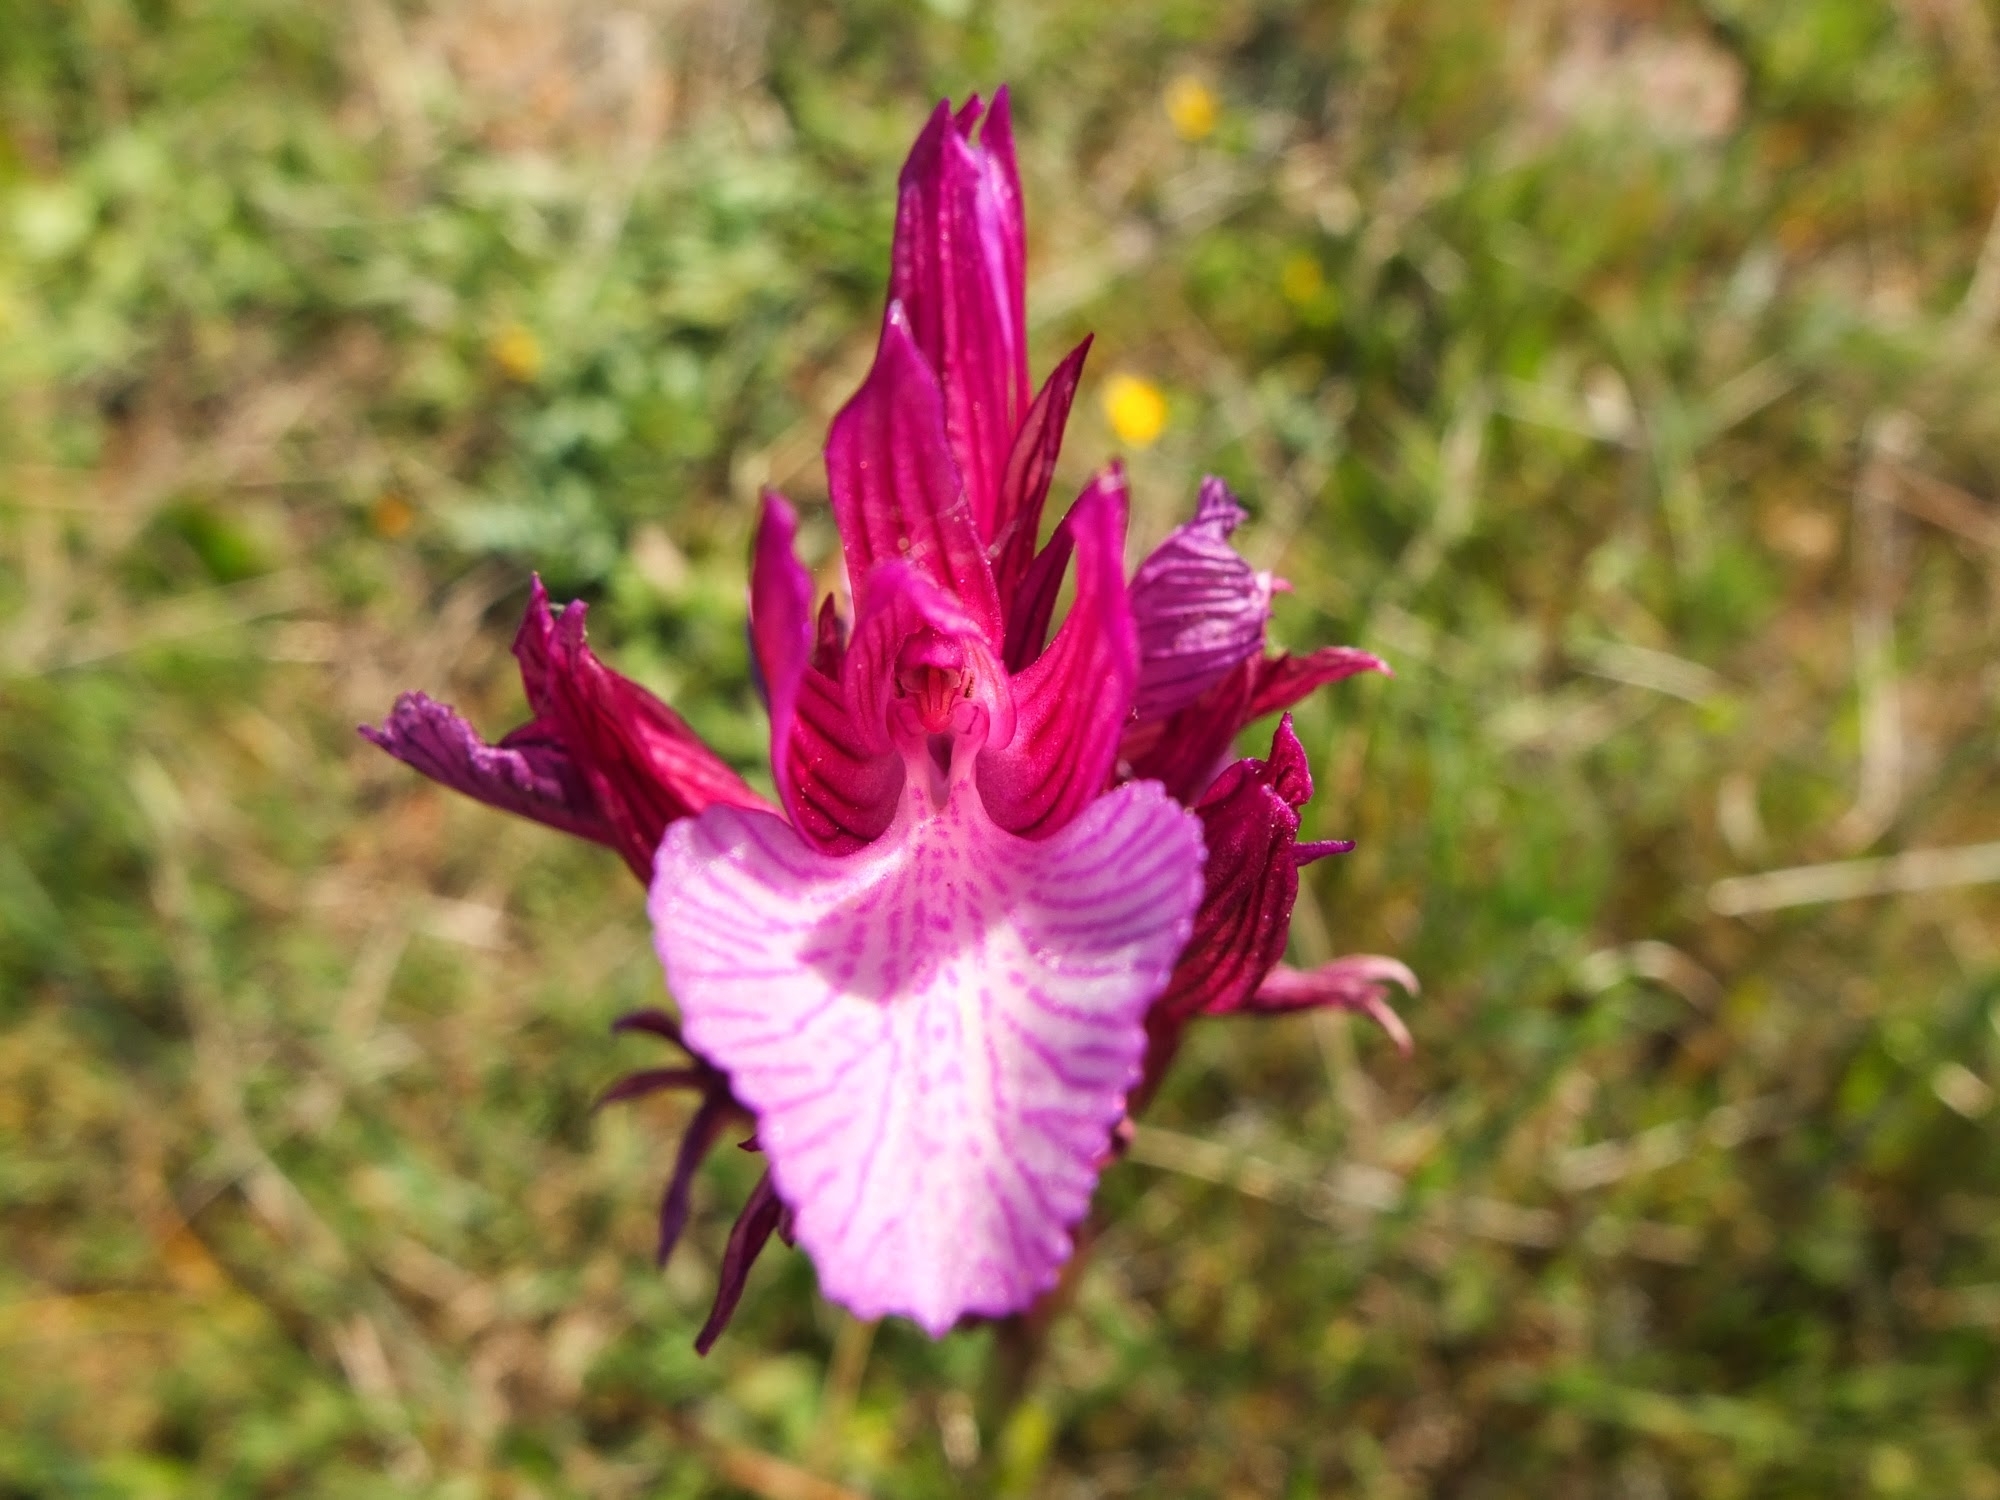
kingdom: Plantae
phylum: Tracheophyta
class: Liliopsida
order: Asparagales
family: Orchidaceae
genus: Anacamptis
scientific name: Anacamptis papilionacea
